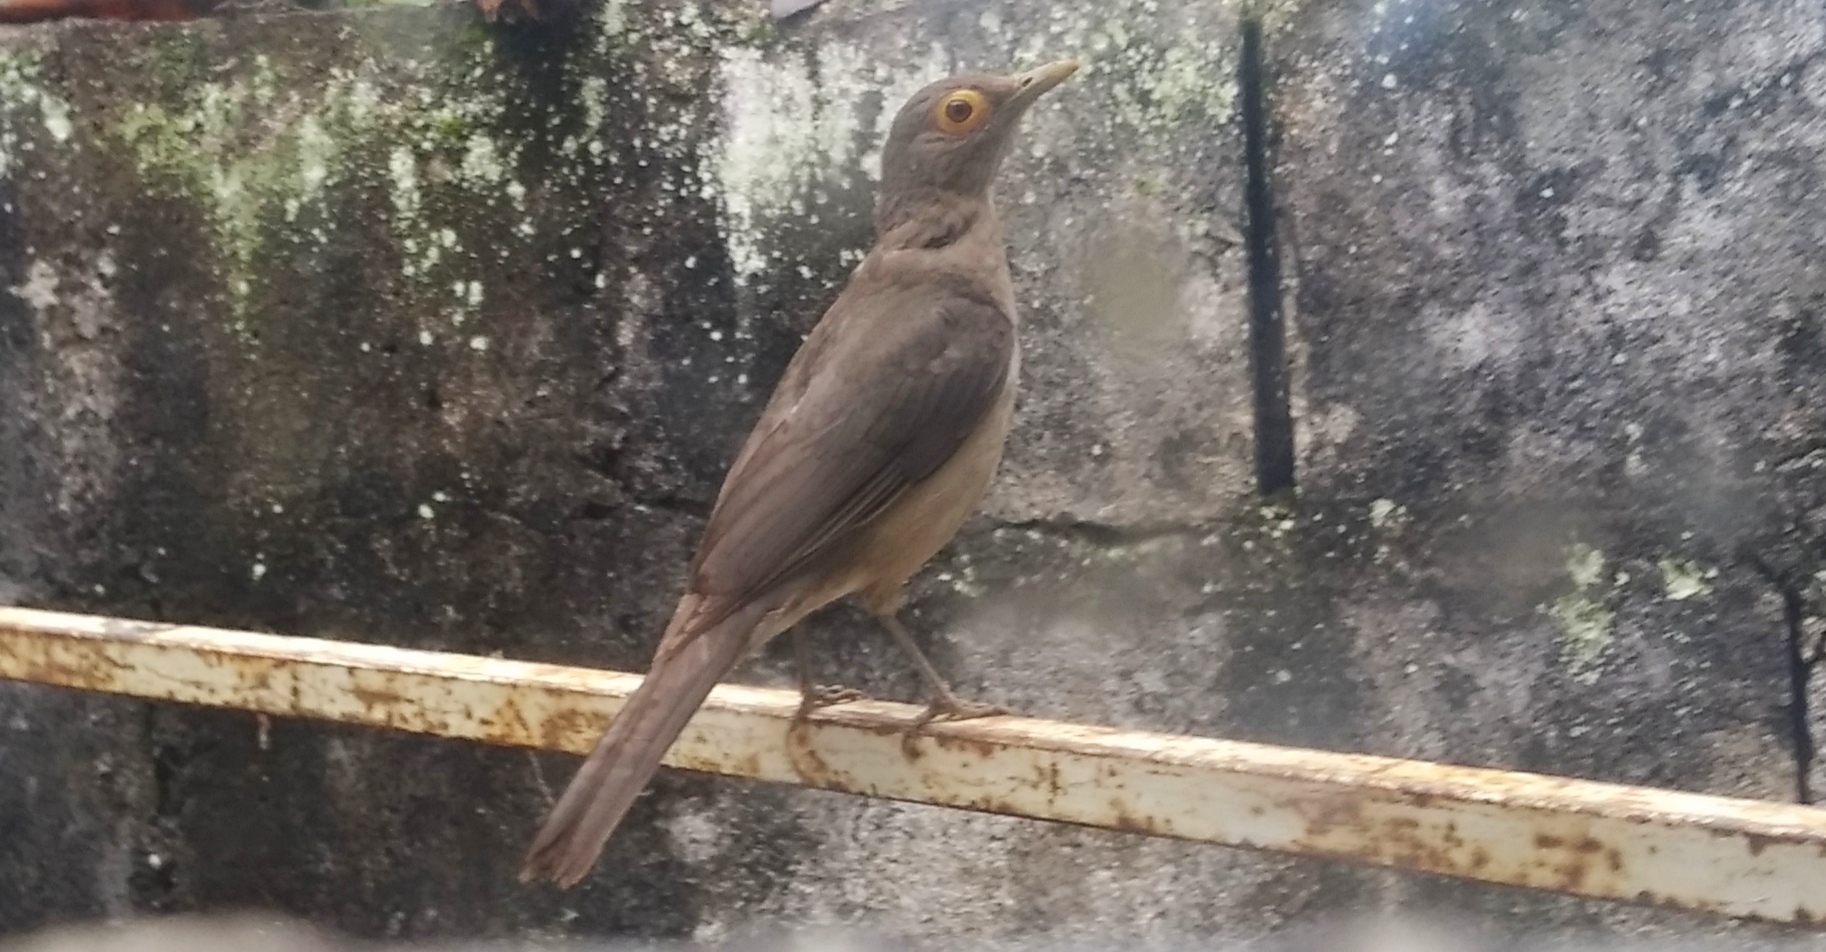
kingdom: Animalia
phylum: Chordata
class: Aves
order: Passeriformes
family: Turdidae
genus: Turdus
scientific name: Turdus nudigenis
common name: Spectacled thrush
